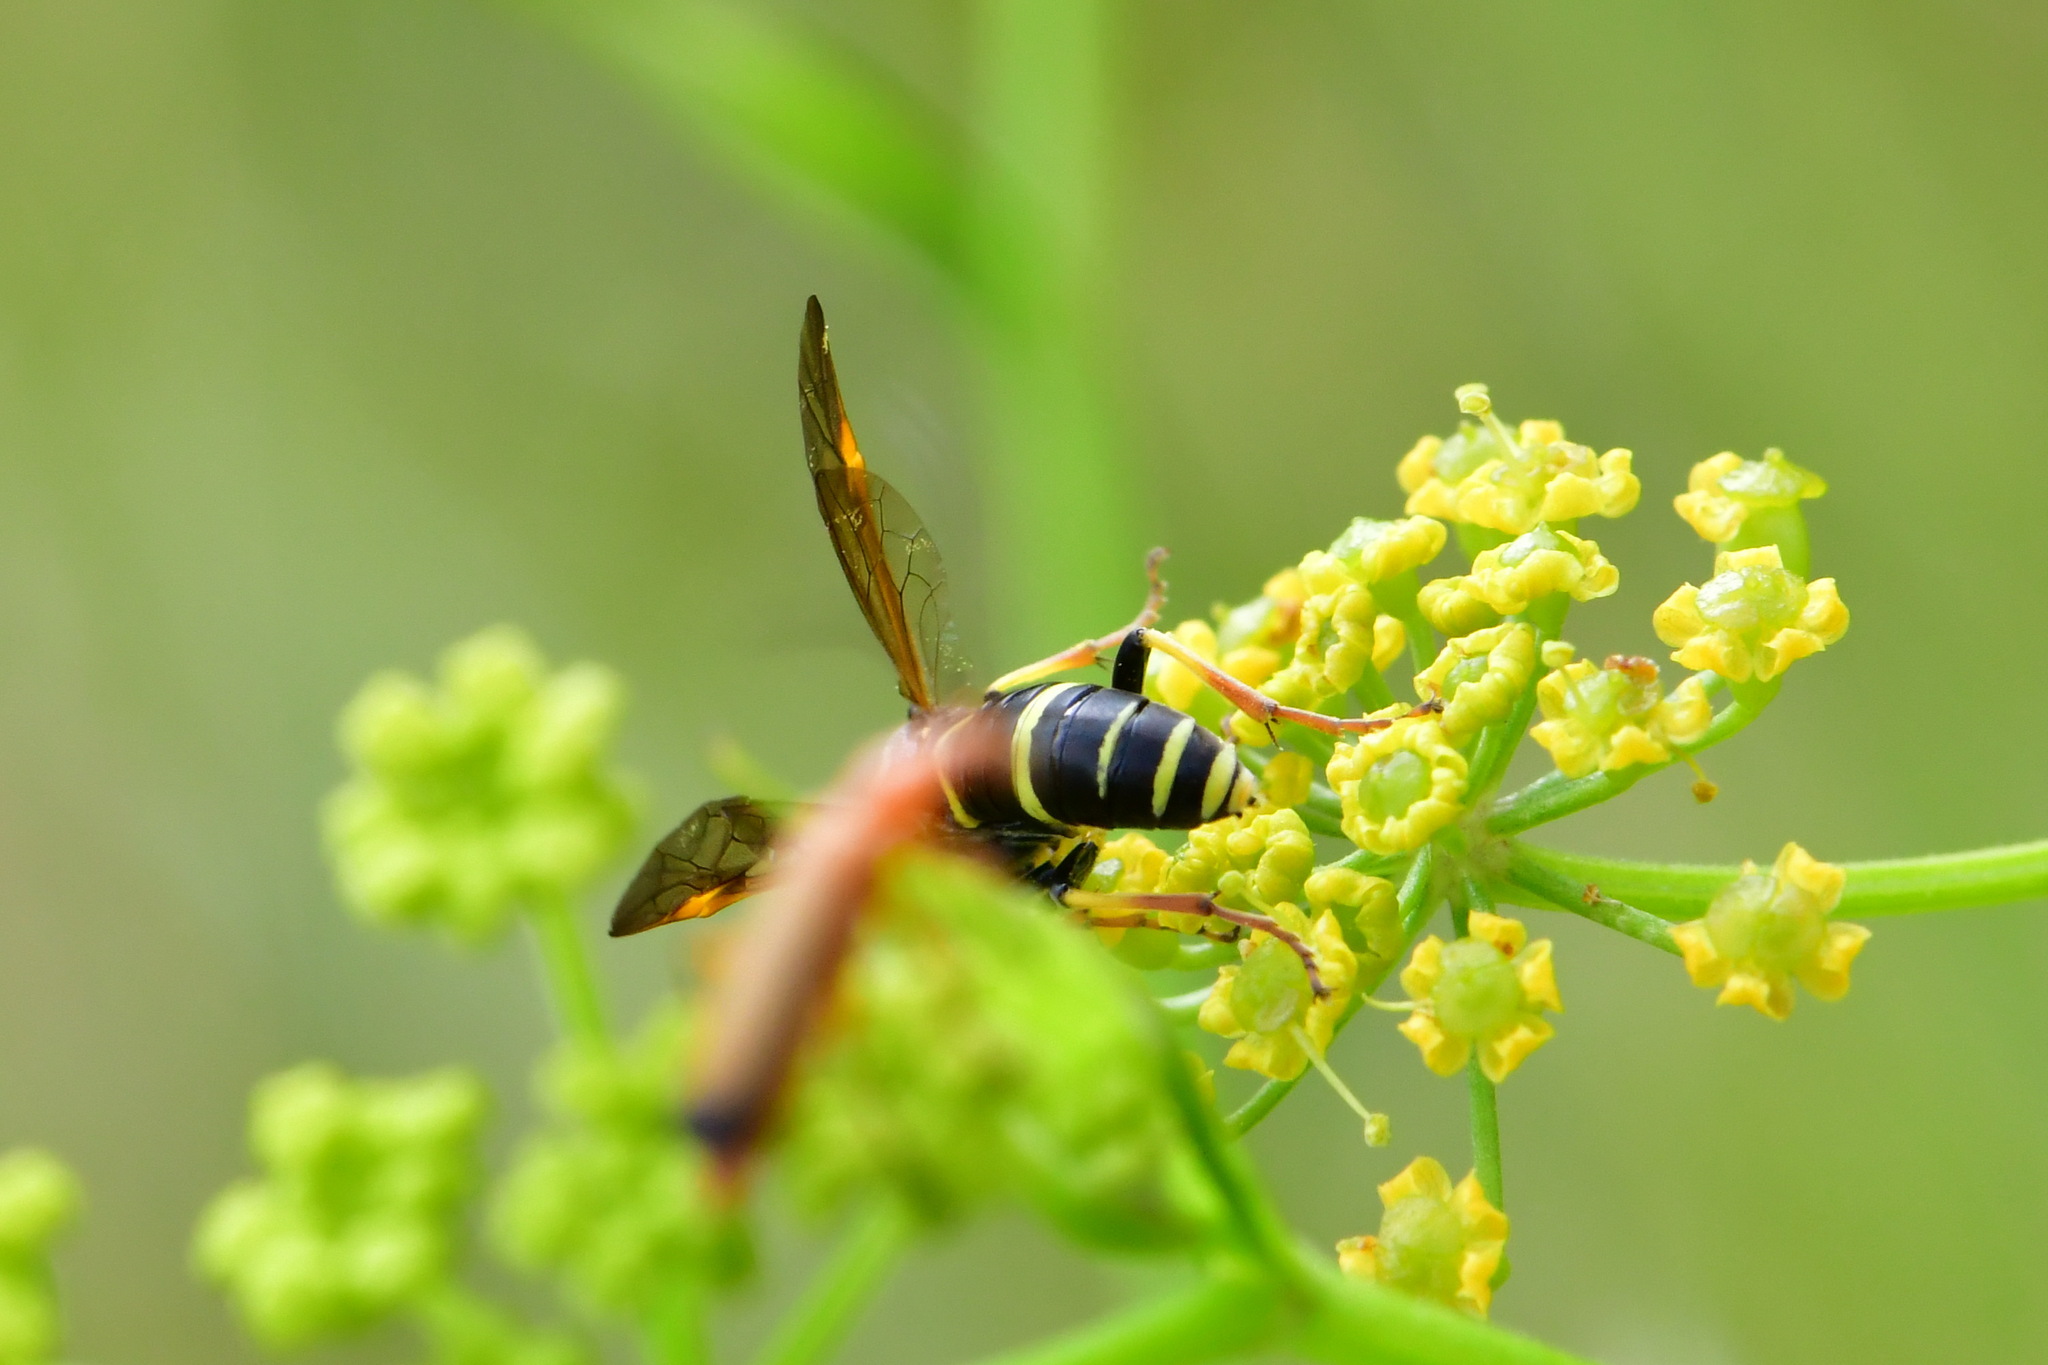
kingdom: Animalia
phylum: Arthropoda
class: Insecta
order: Hymenoptera
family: Tenthredinidae
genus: Tenthredo
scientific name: Tenthredo amoena
